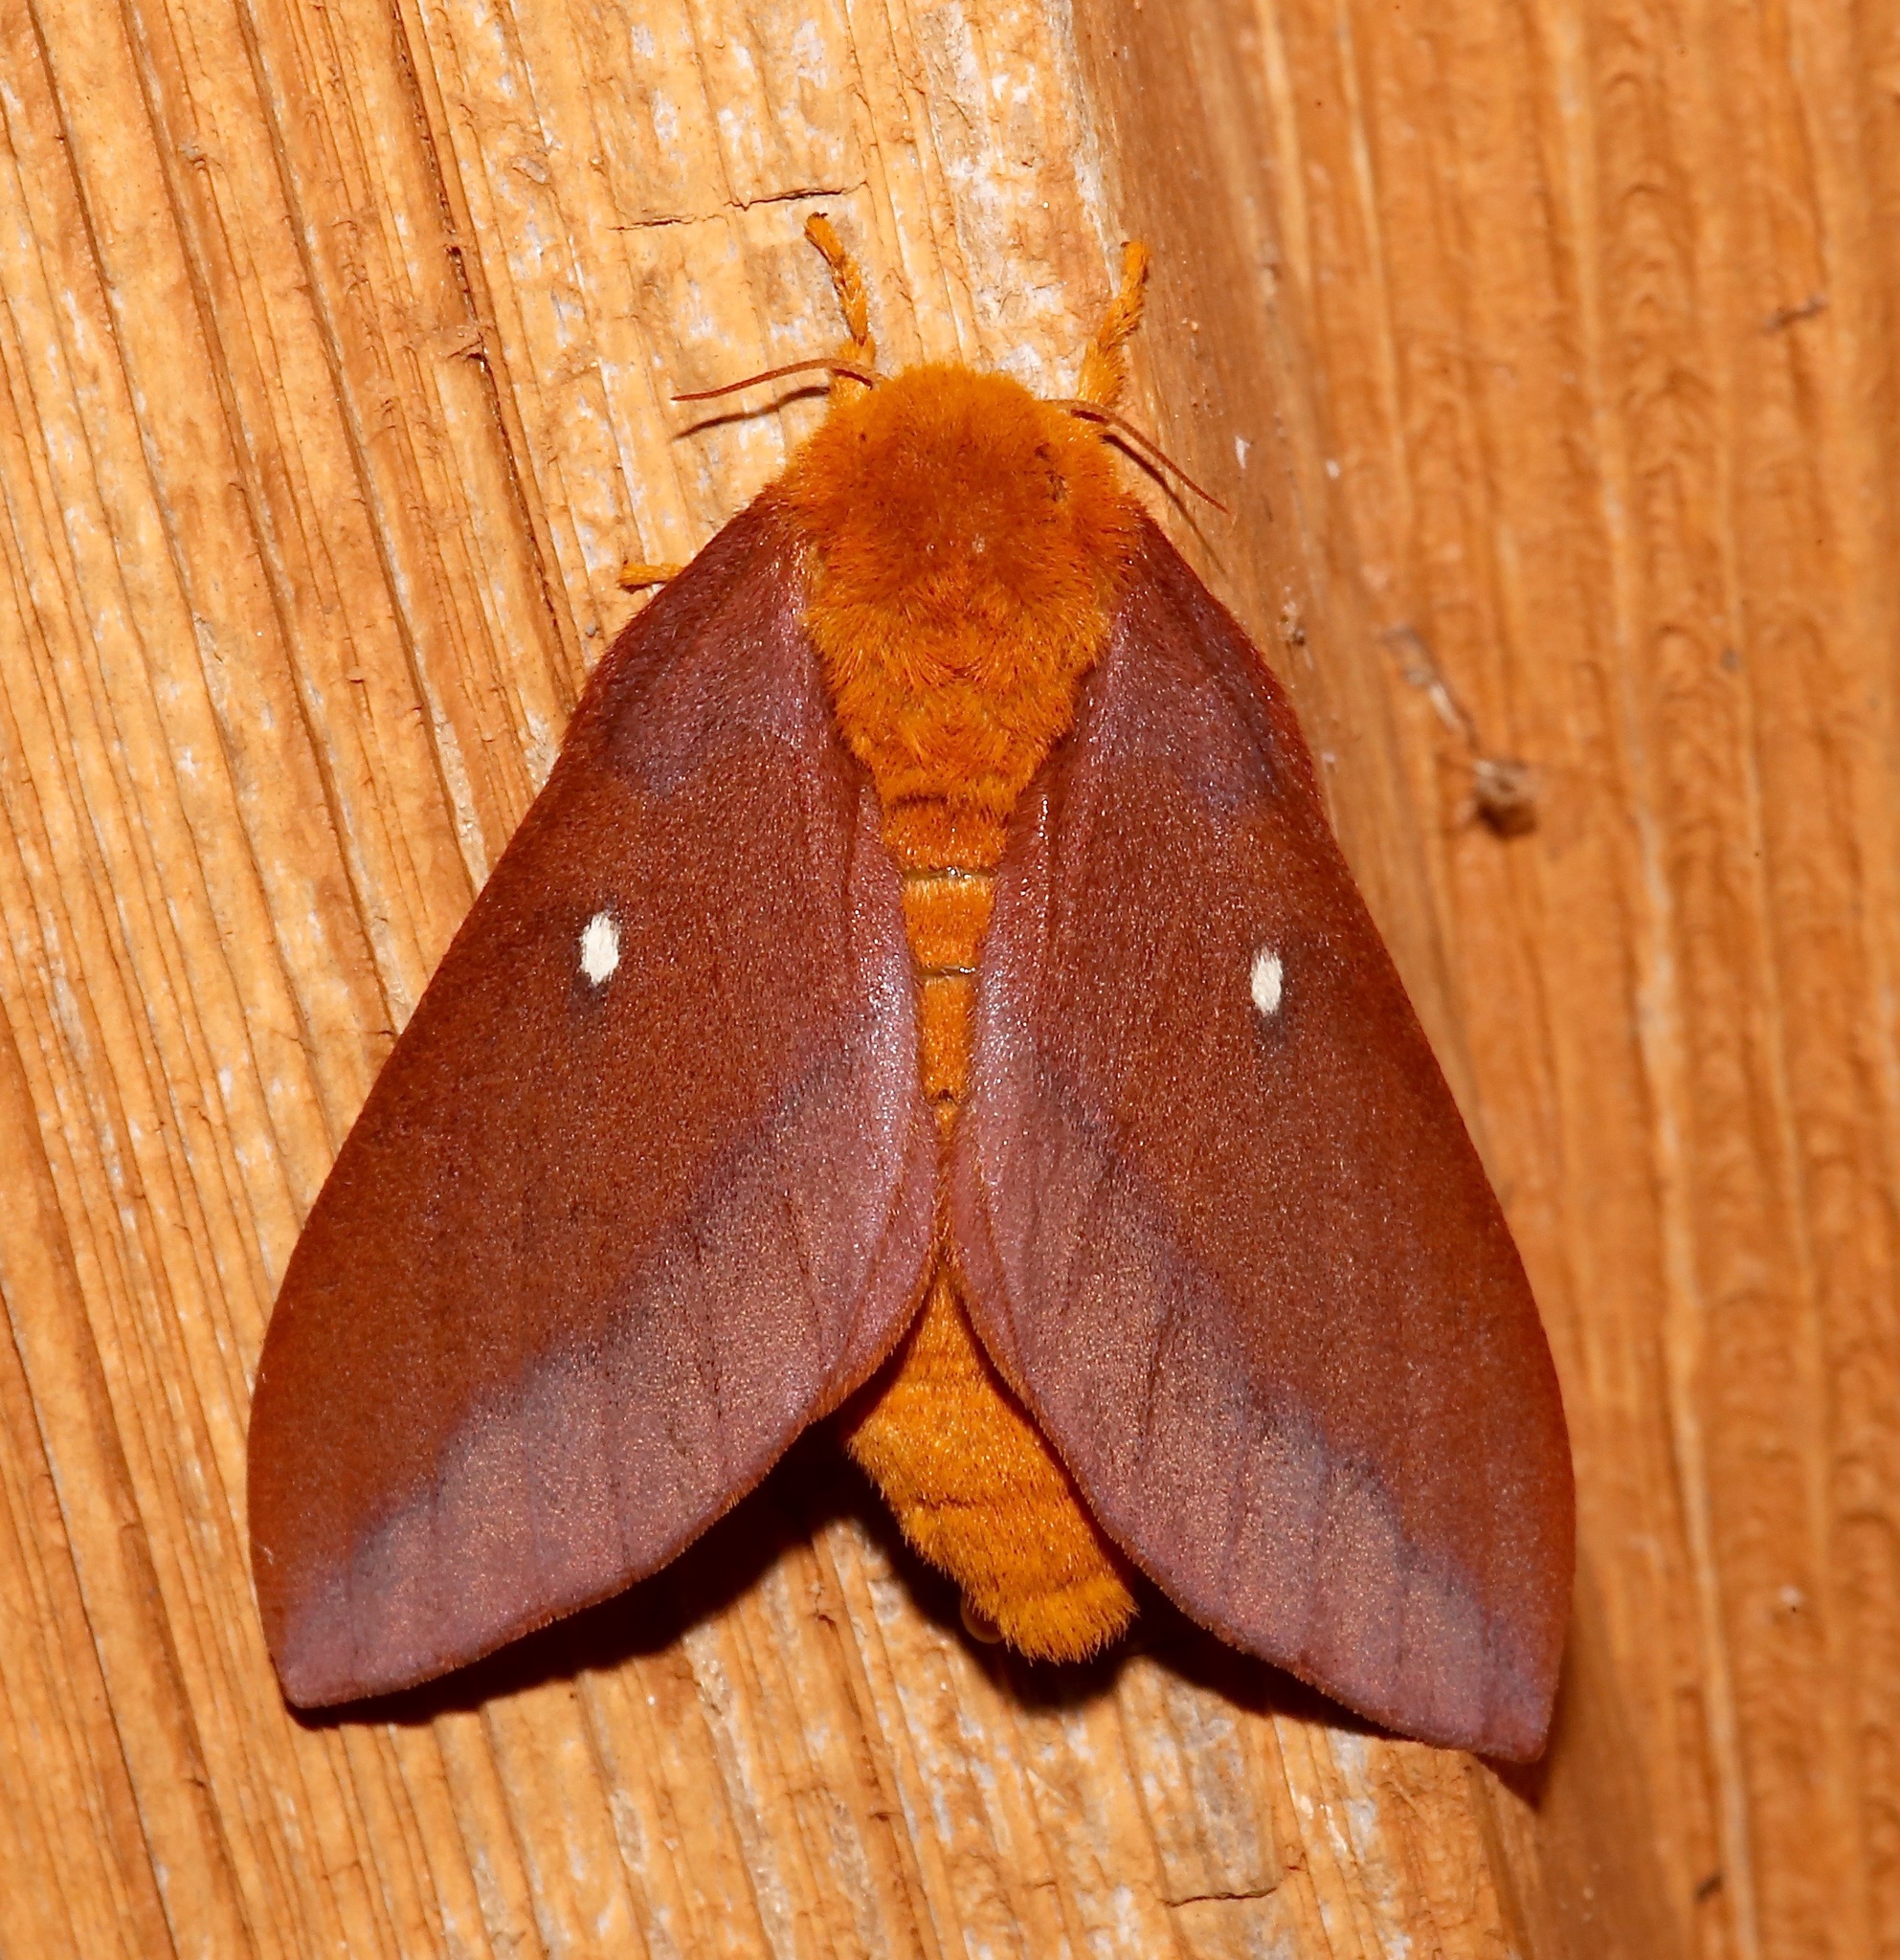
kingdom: Animalia
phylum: Arthropoda
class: Insecta
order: Lepidoptera
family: Saturniidae
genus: Anisota
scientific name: Anisota virginiensis
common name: Pink striped oakworm moth
